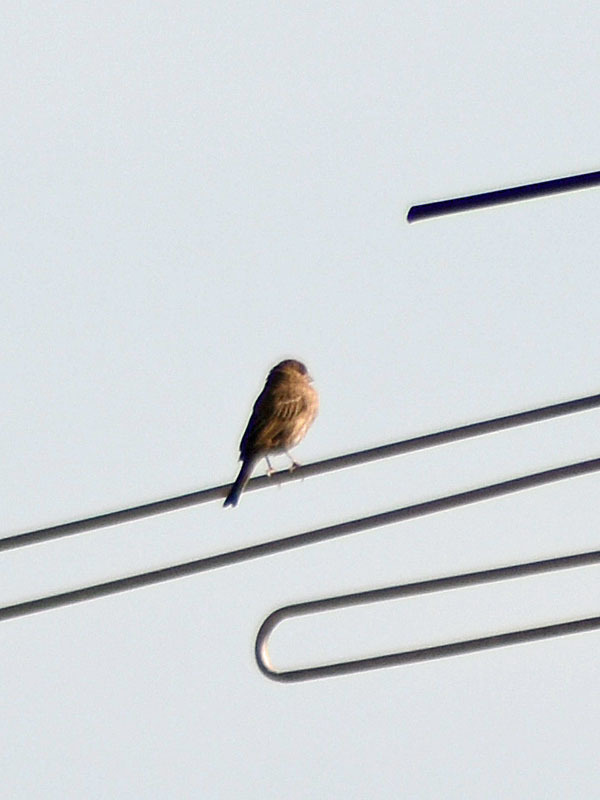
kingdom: Animalia
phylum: Chordata
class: Aves
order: Passeriformes
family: Fringillidae
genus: Haemorhous
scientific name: Haemorhous mexicanus
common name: House finch
